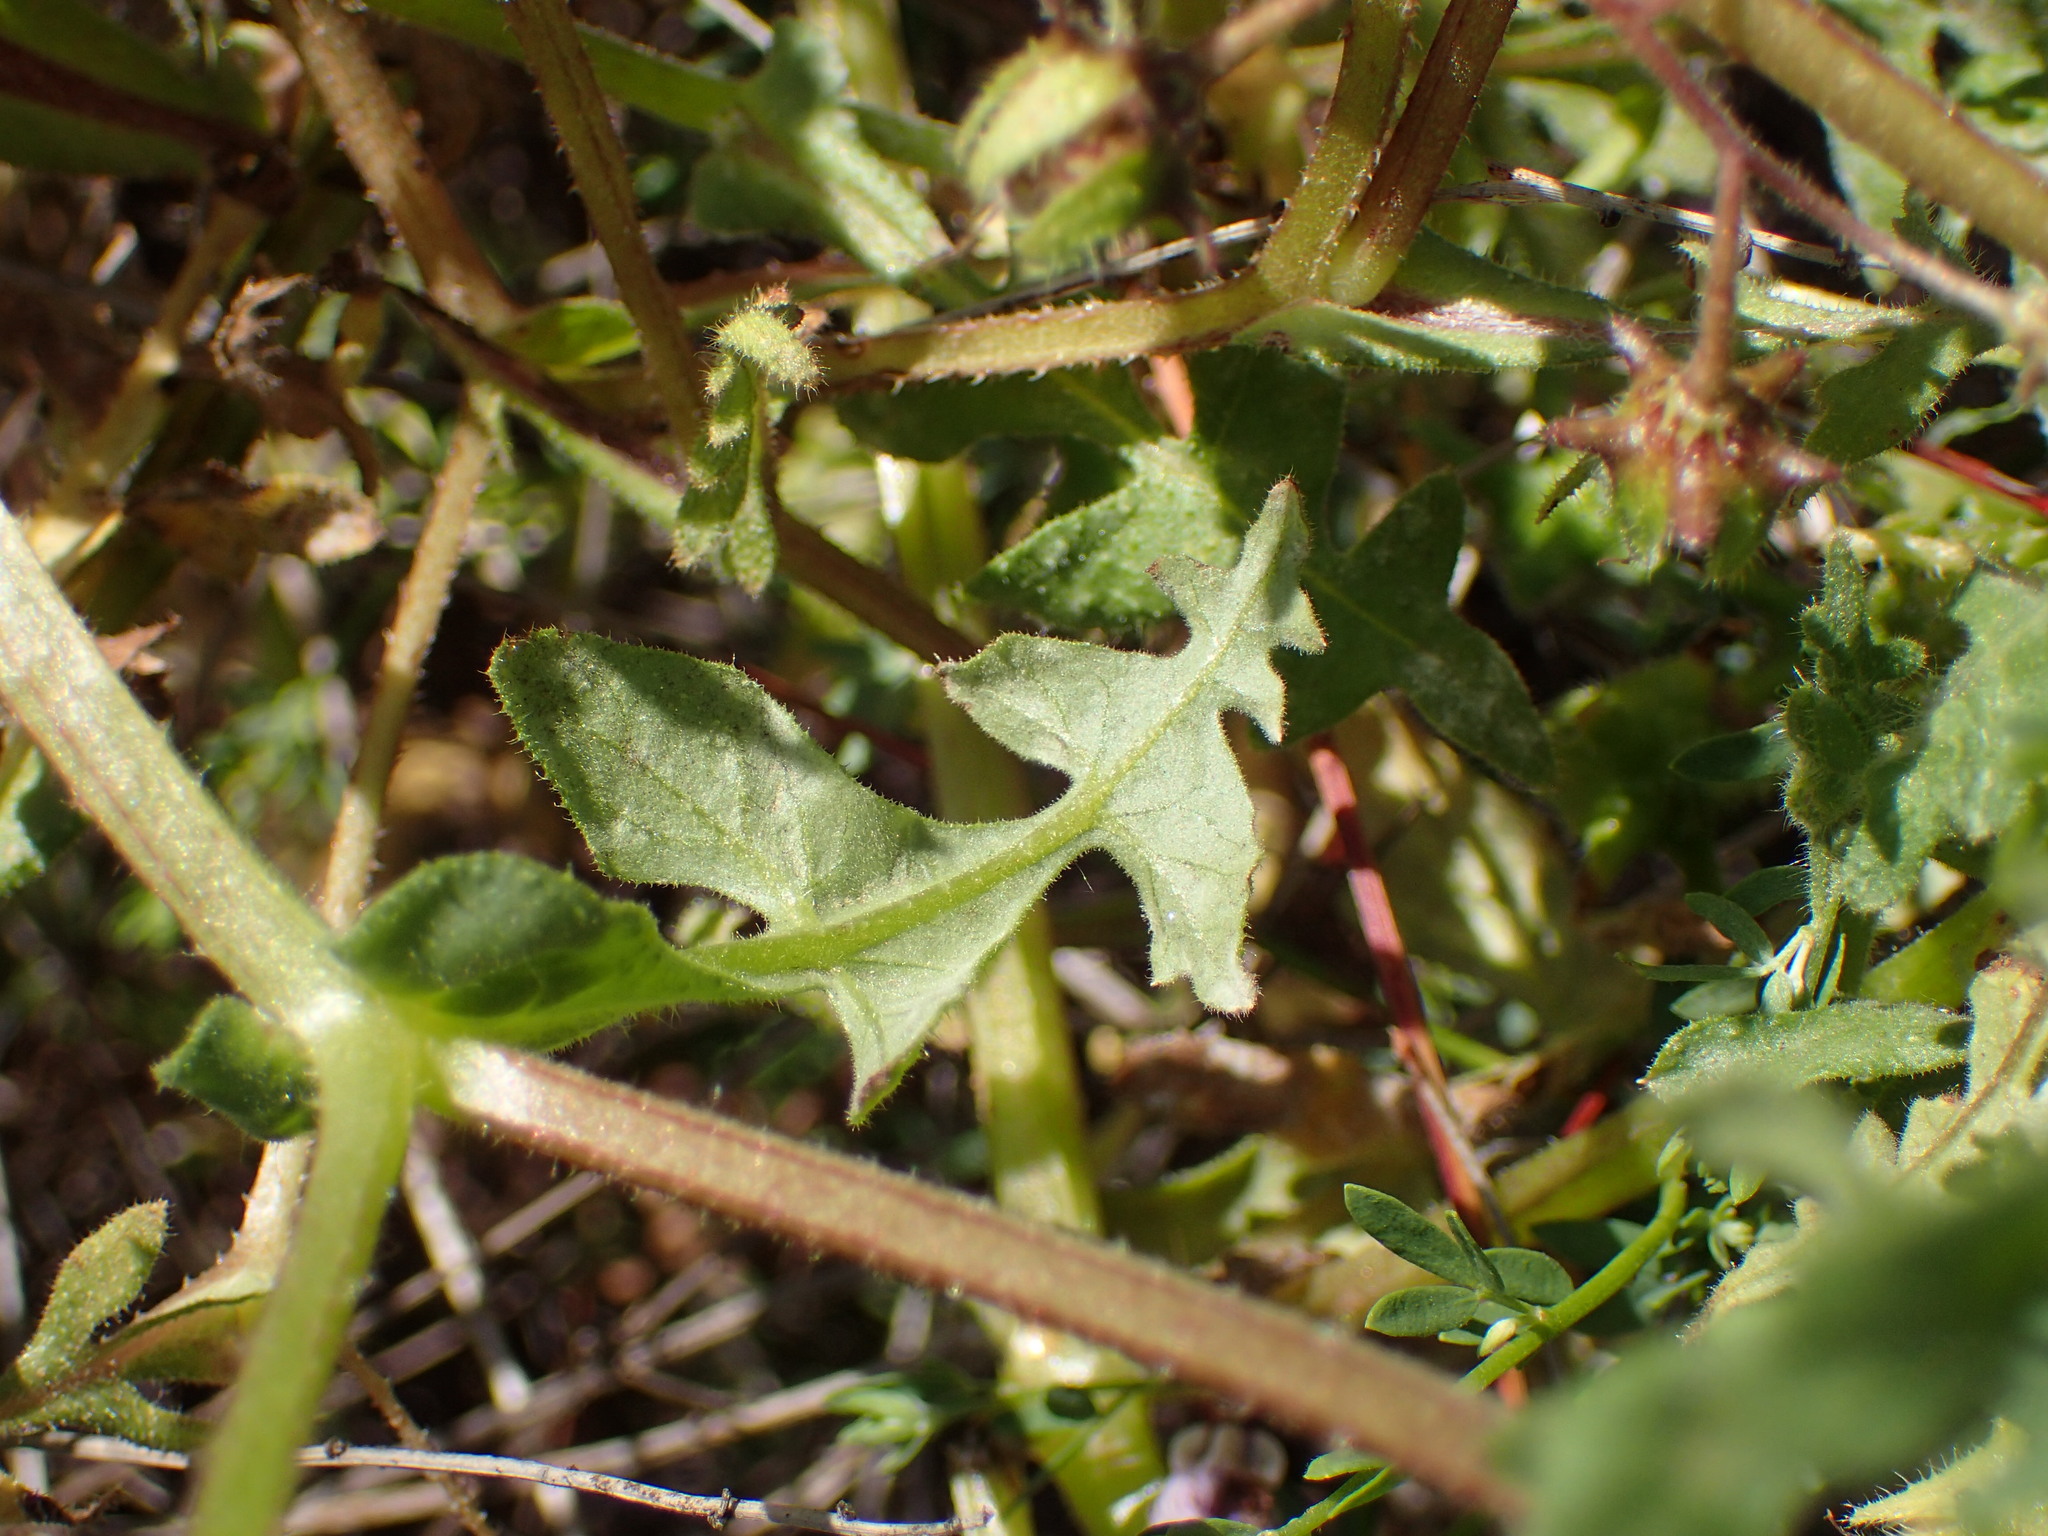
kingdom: Plantae
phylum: Tracheophyta
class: Magnoliopsida
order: Boraginales
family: Hydrophyllaceae
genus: Pholistoma
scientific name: Pholistoma auritum
